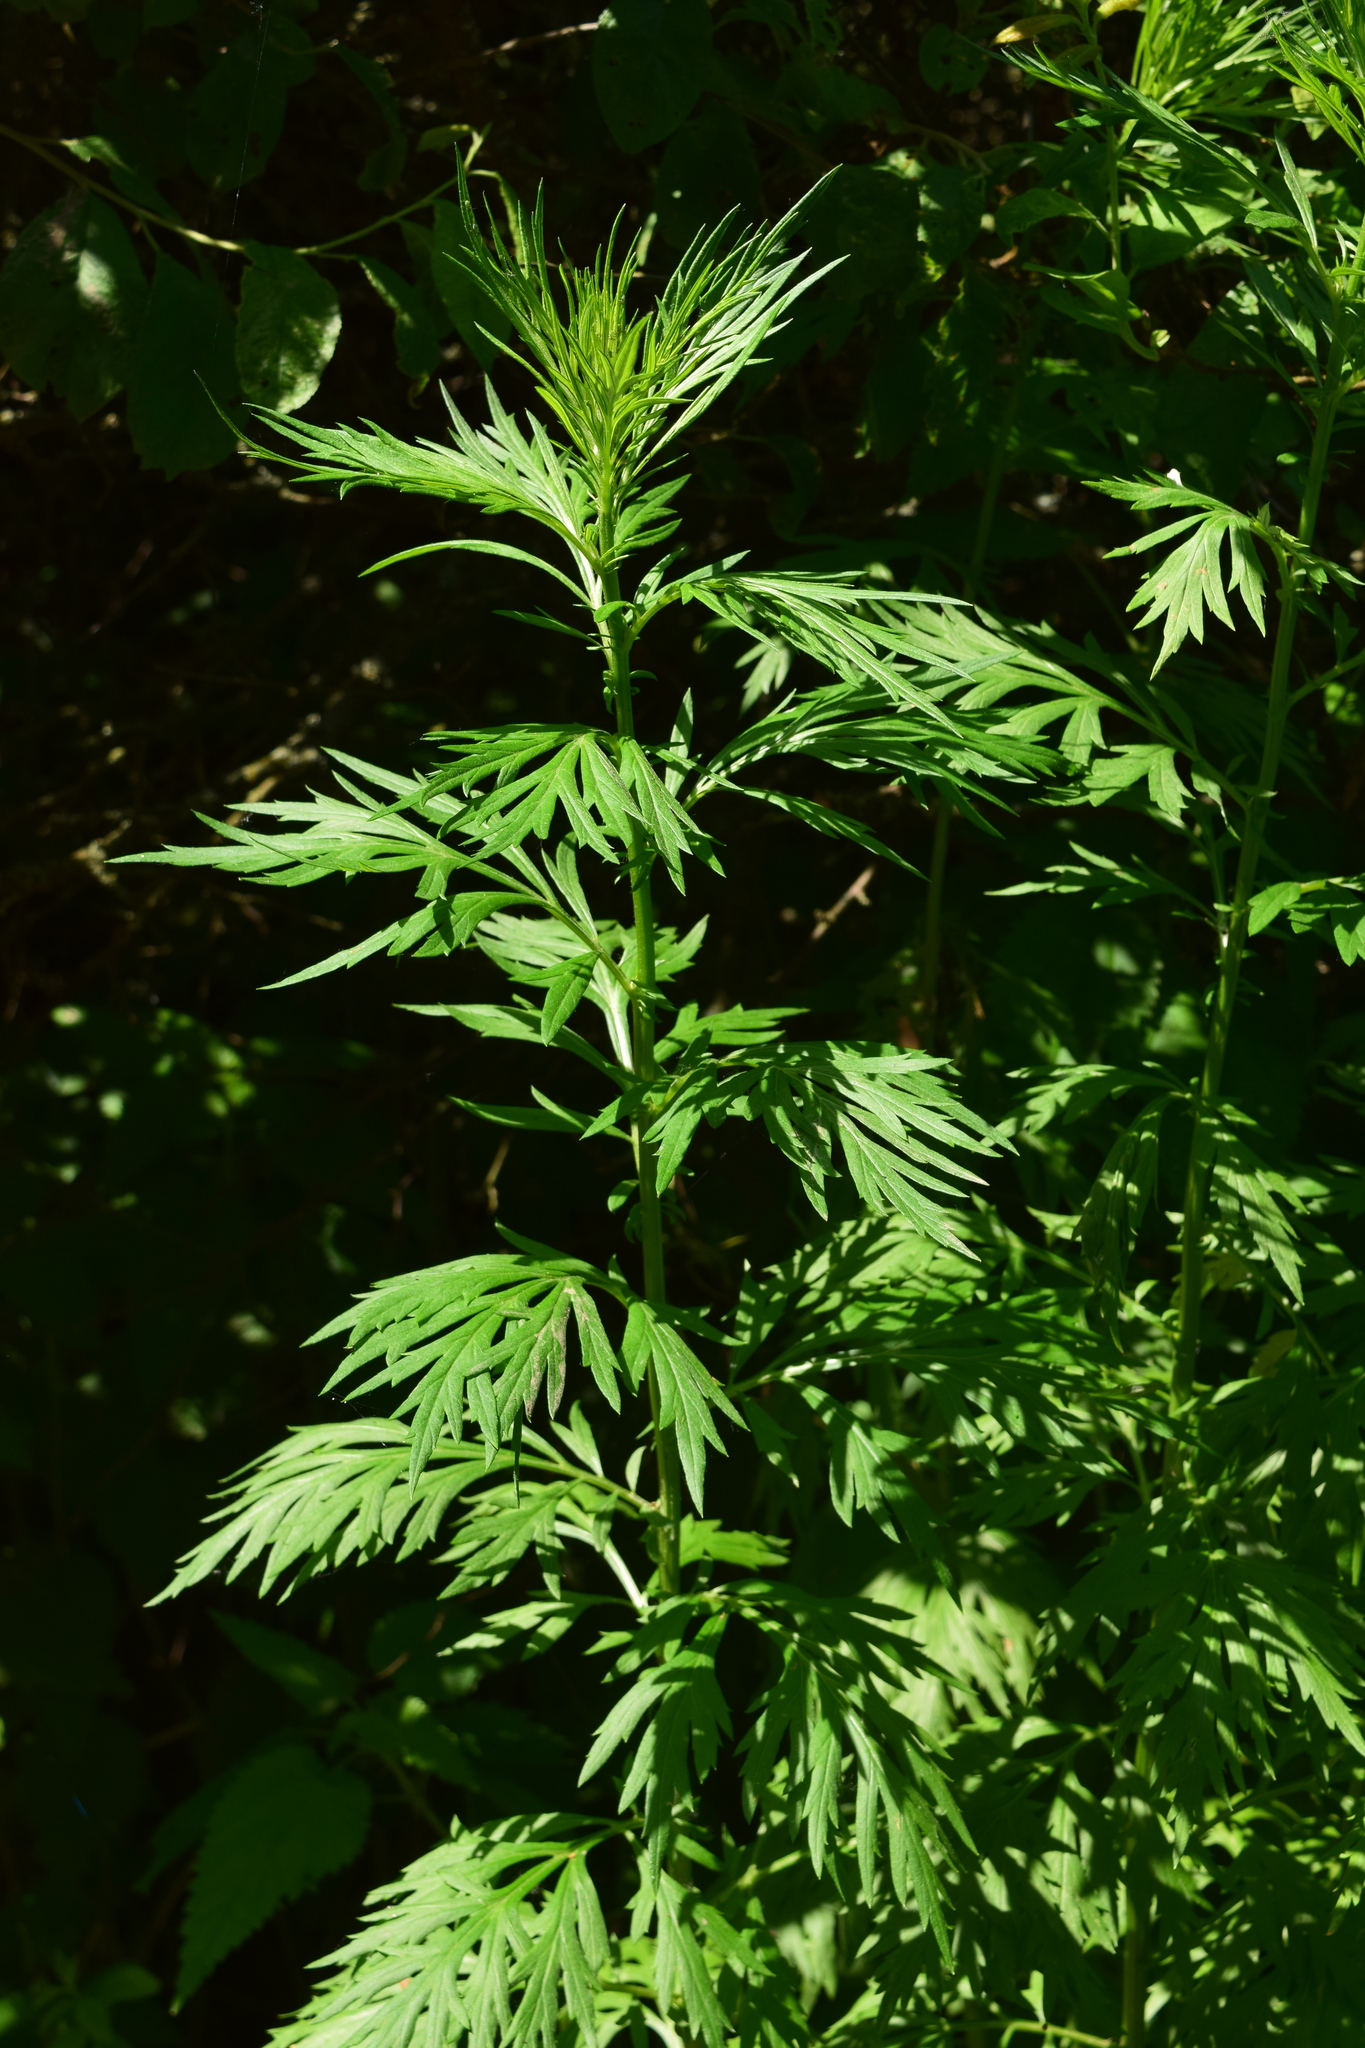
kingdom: Plantae
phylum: Tracheophyta
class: Magnoliopsida
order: Asterales
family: Asteraceae
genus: Artemisia
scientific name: Artemisia vulgaris
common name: Mugwort
